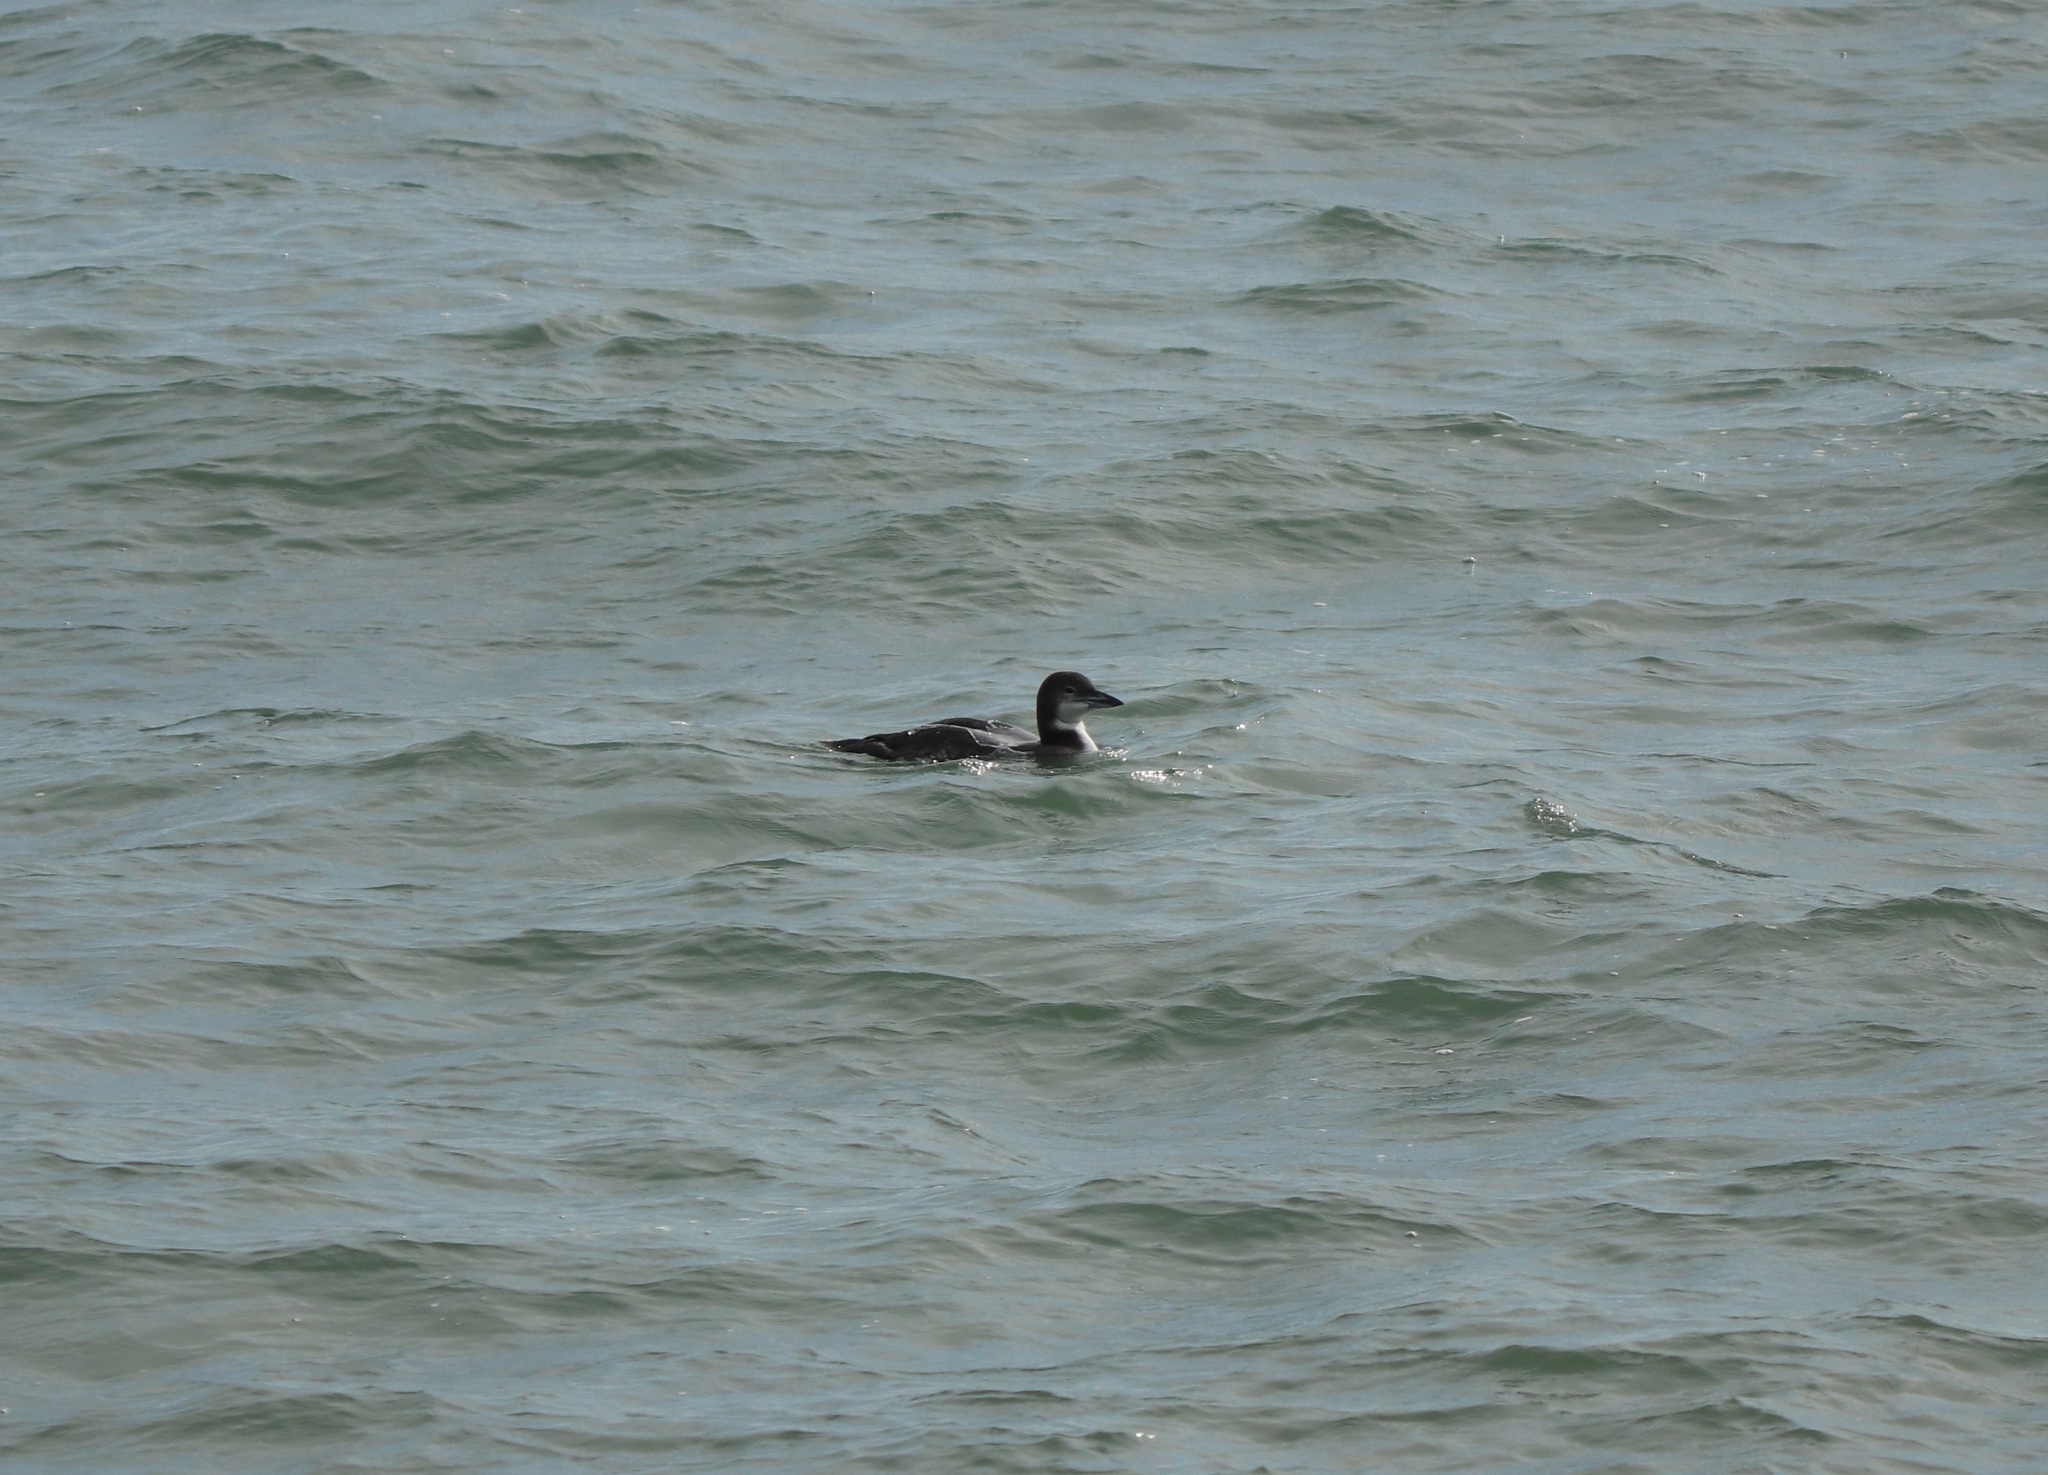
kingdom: Animalia
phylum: Chordata
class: Aves
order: Gaviiformes
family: Gaviidae
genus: Gavia
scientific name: Gavia immer
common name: Common loon
